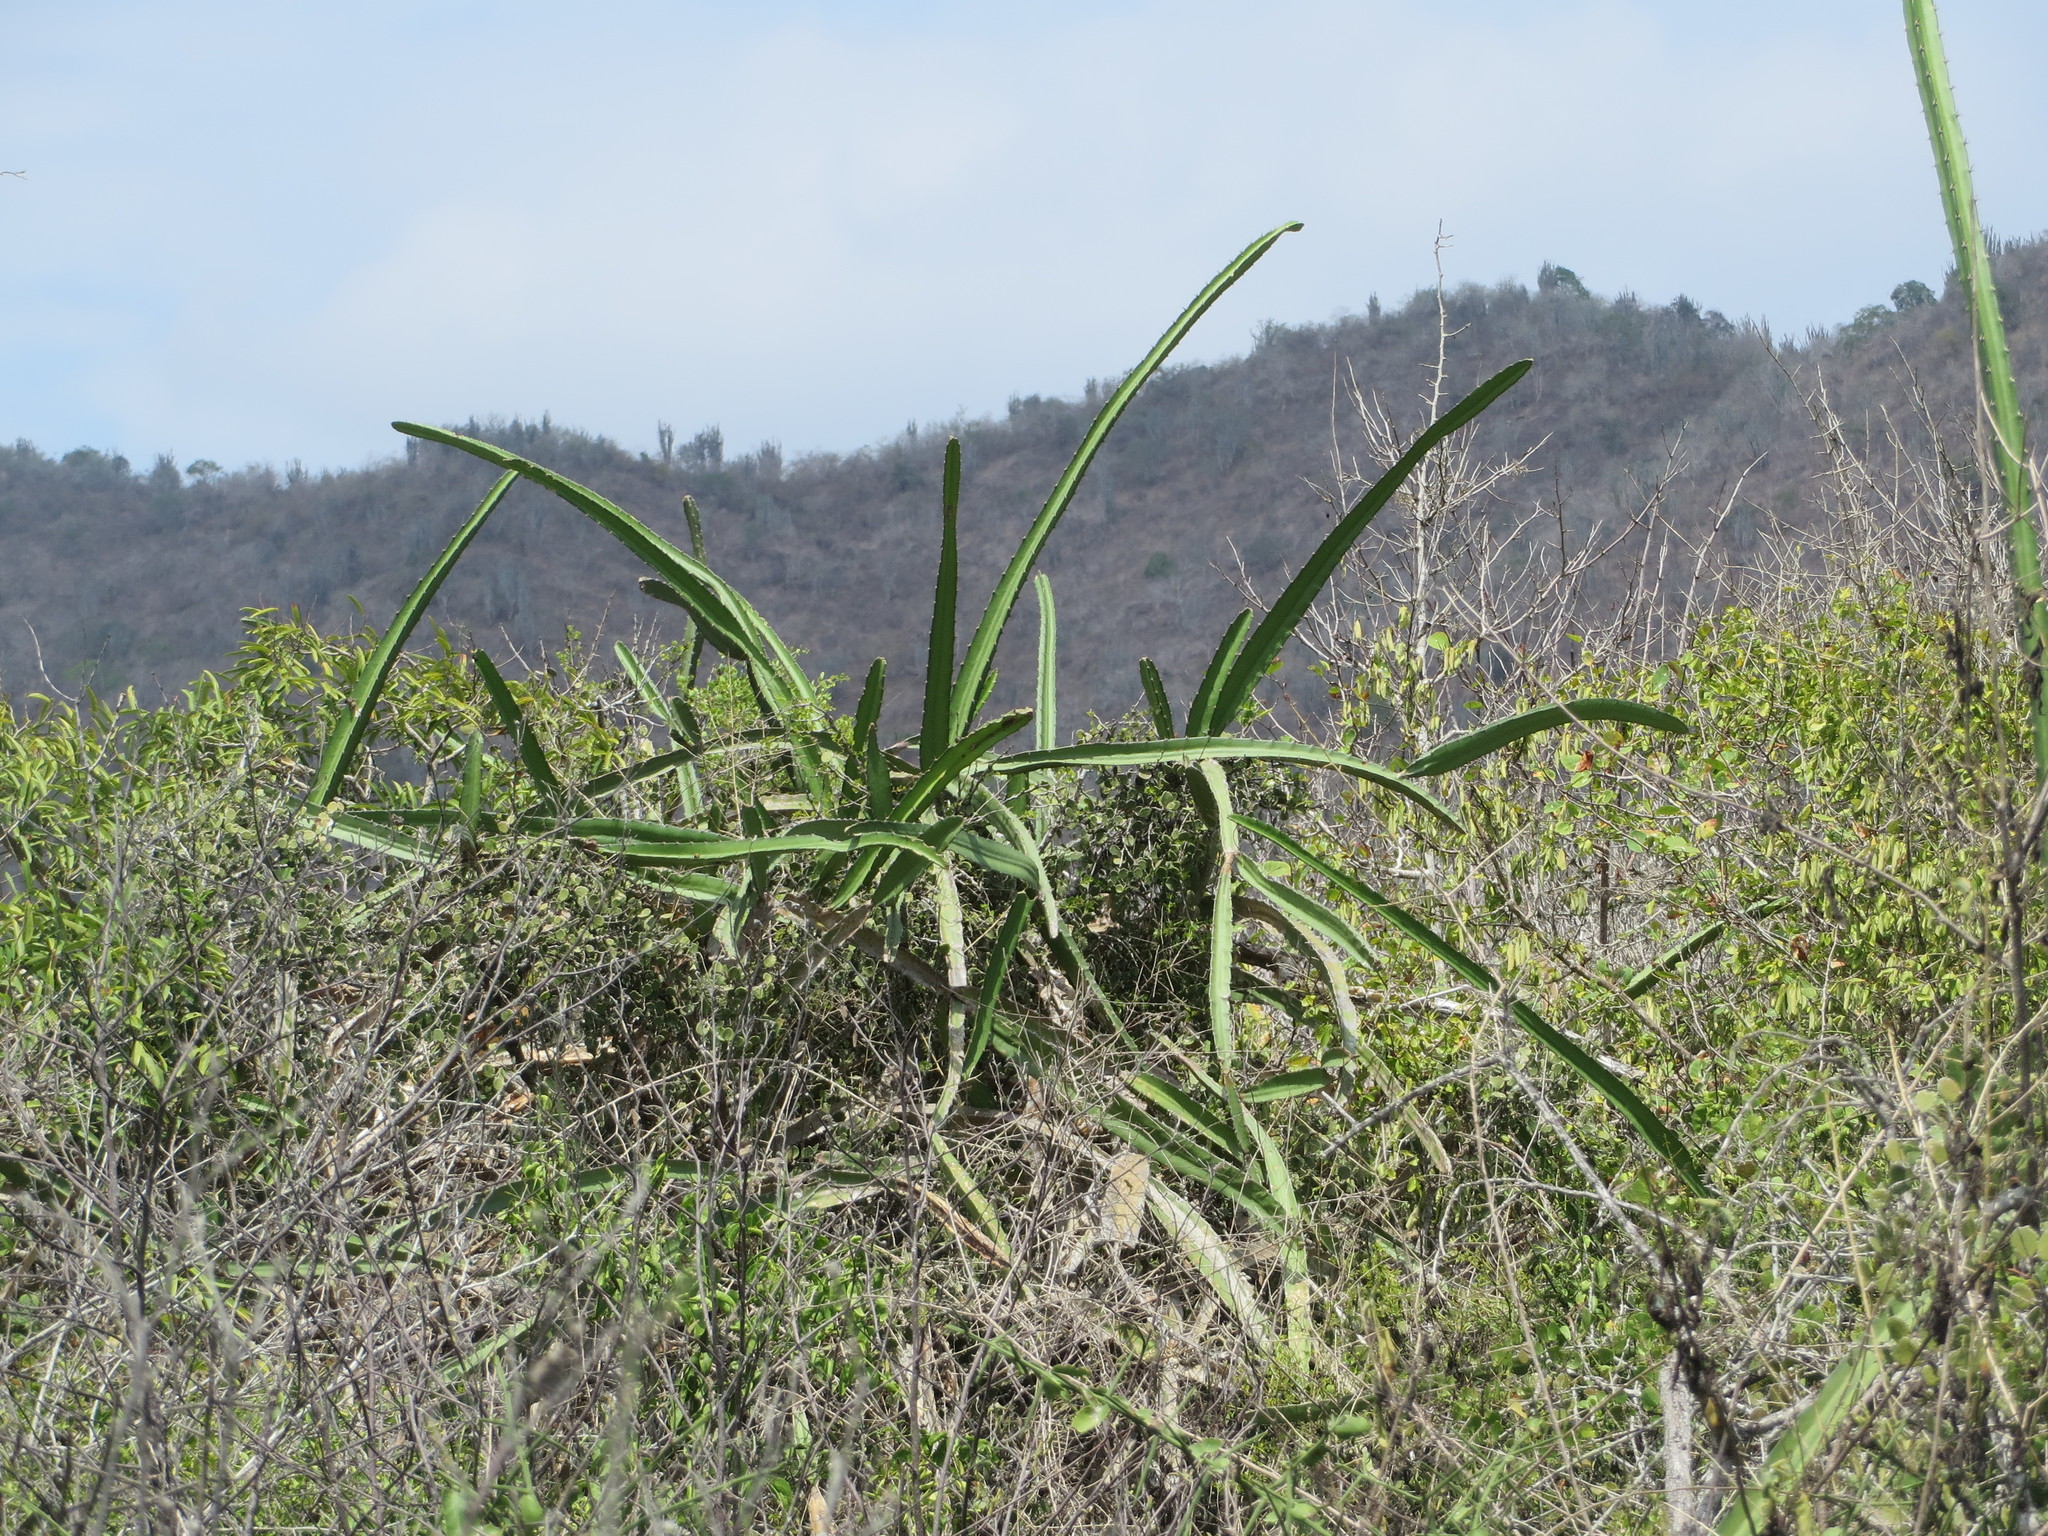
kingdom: Plantae
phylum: Tracheophyta
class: Magnoliopsida
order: Caryophyllales
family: Cactaceae
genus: Selenicereus
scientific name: Selenicereus monacanthus
